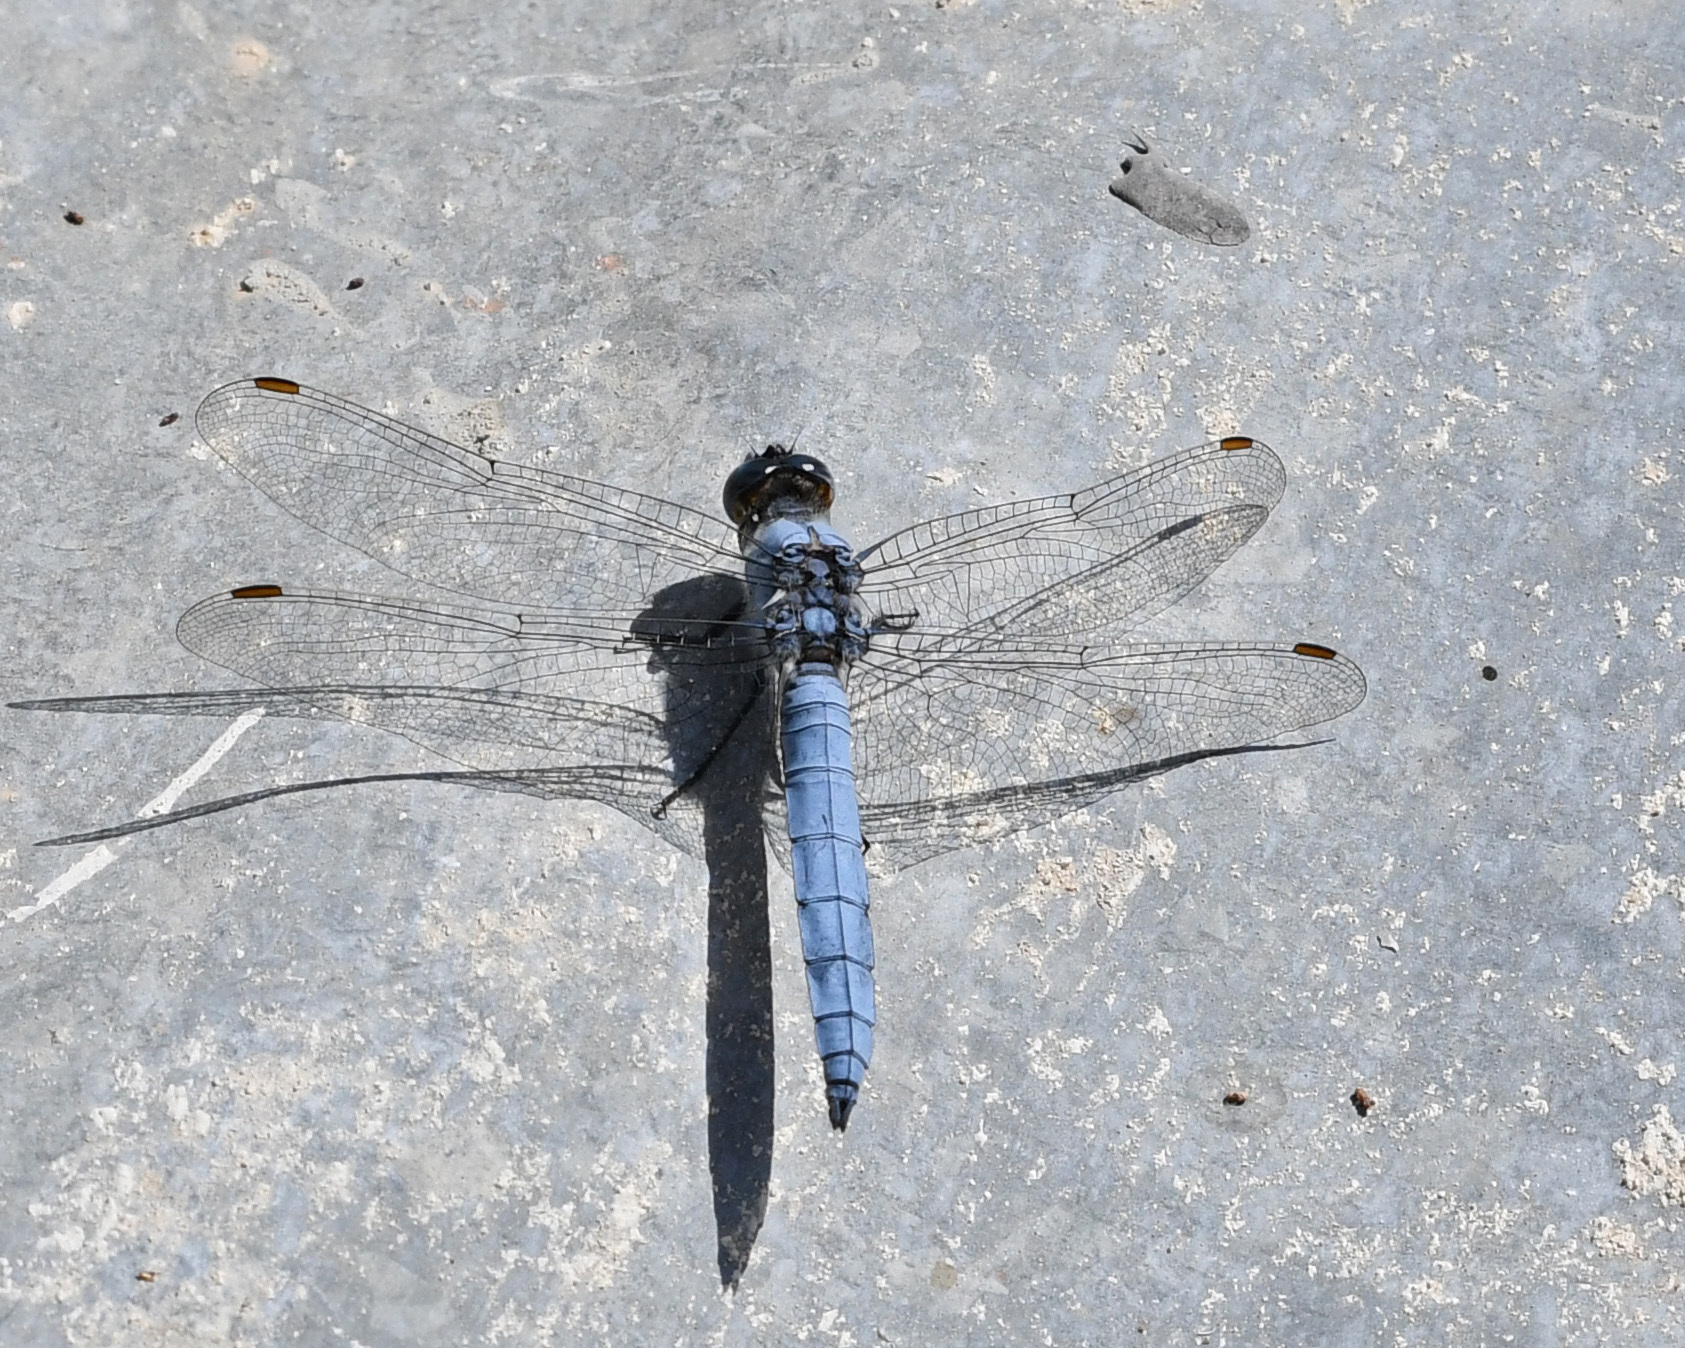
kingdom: Animalia
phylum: Arthropoda
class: Insecta
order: Odonata
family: Libellulidae
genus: Orthetrum
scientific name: Orthetrum brunneum
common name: Southern skimmer
